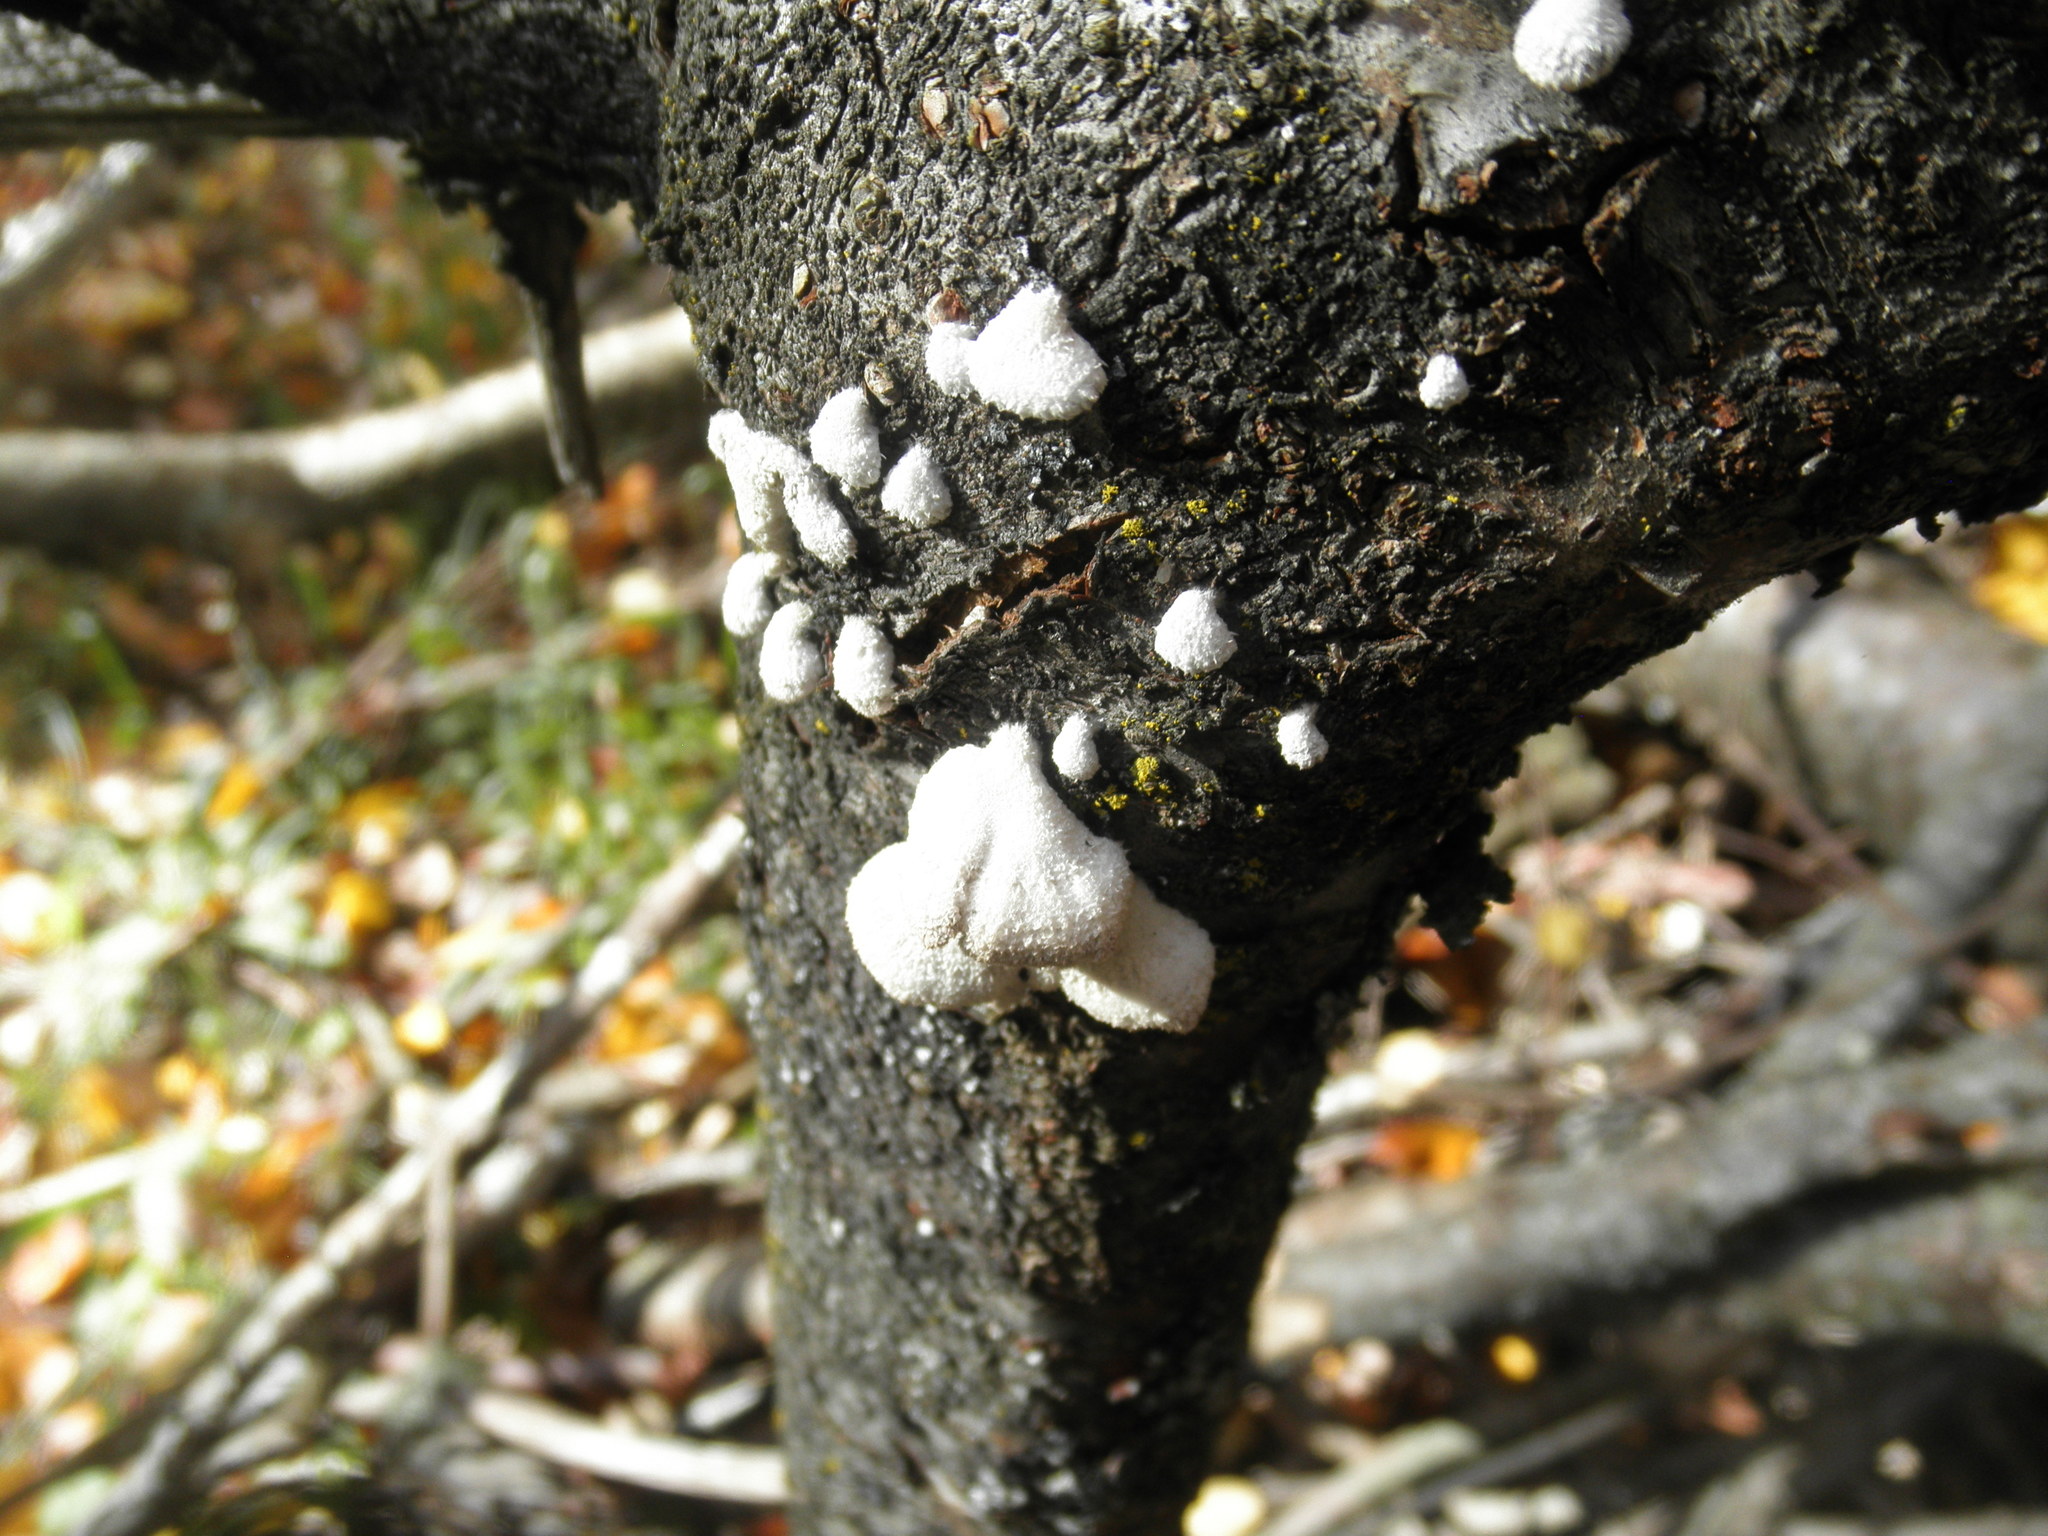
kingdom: Fungi
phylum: Basidiomycota
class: Agaricomycetes
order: Agaricales
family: Schizophyllaceae
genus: Schizophyllum
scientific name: Schizophyllum commune
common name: Common porecrust
